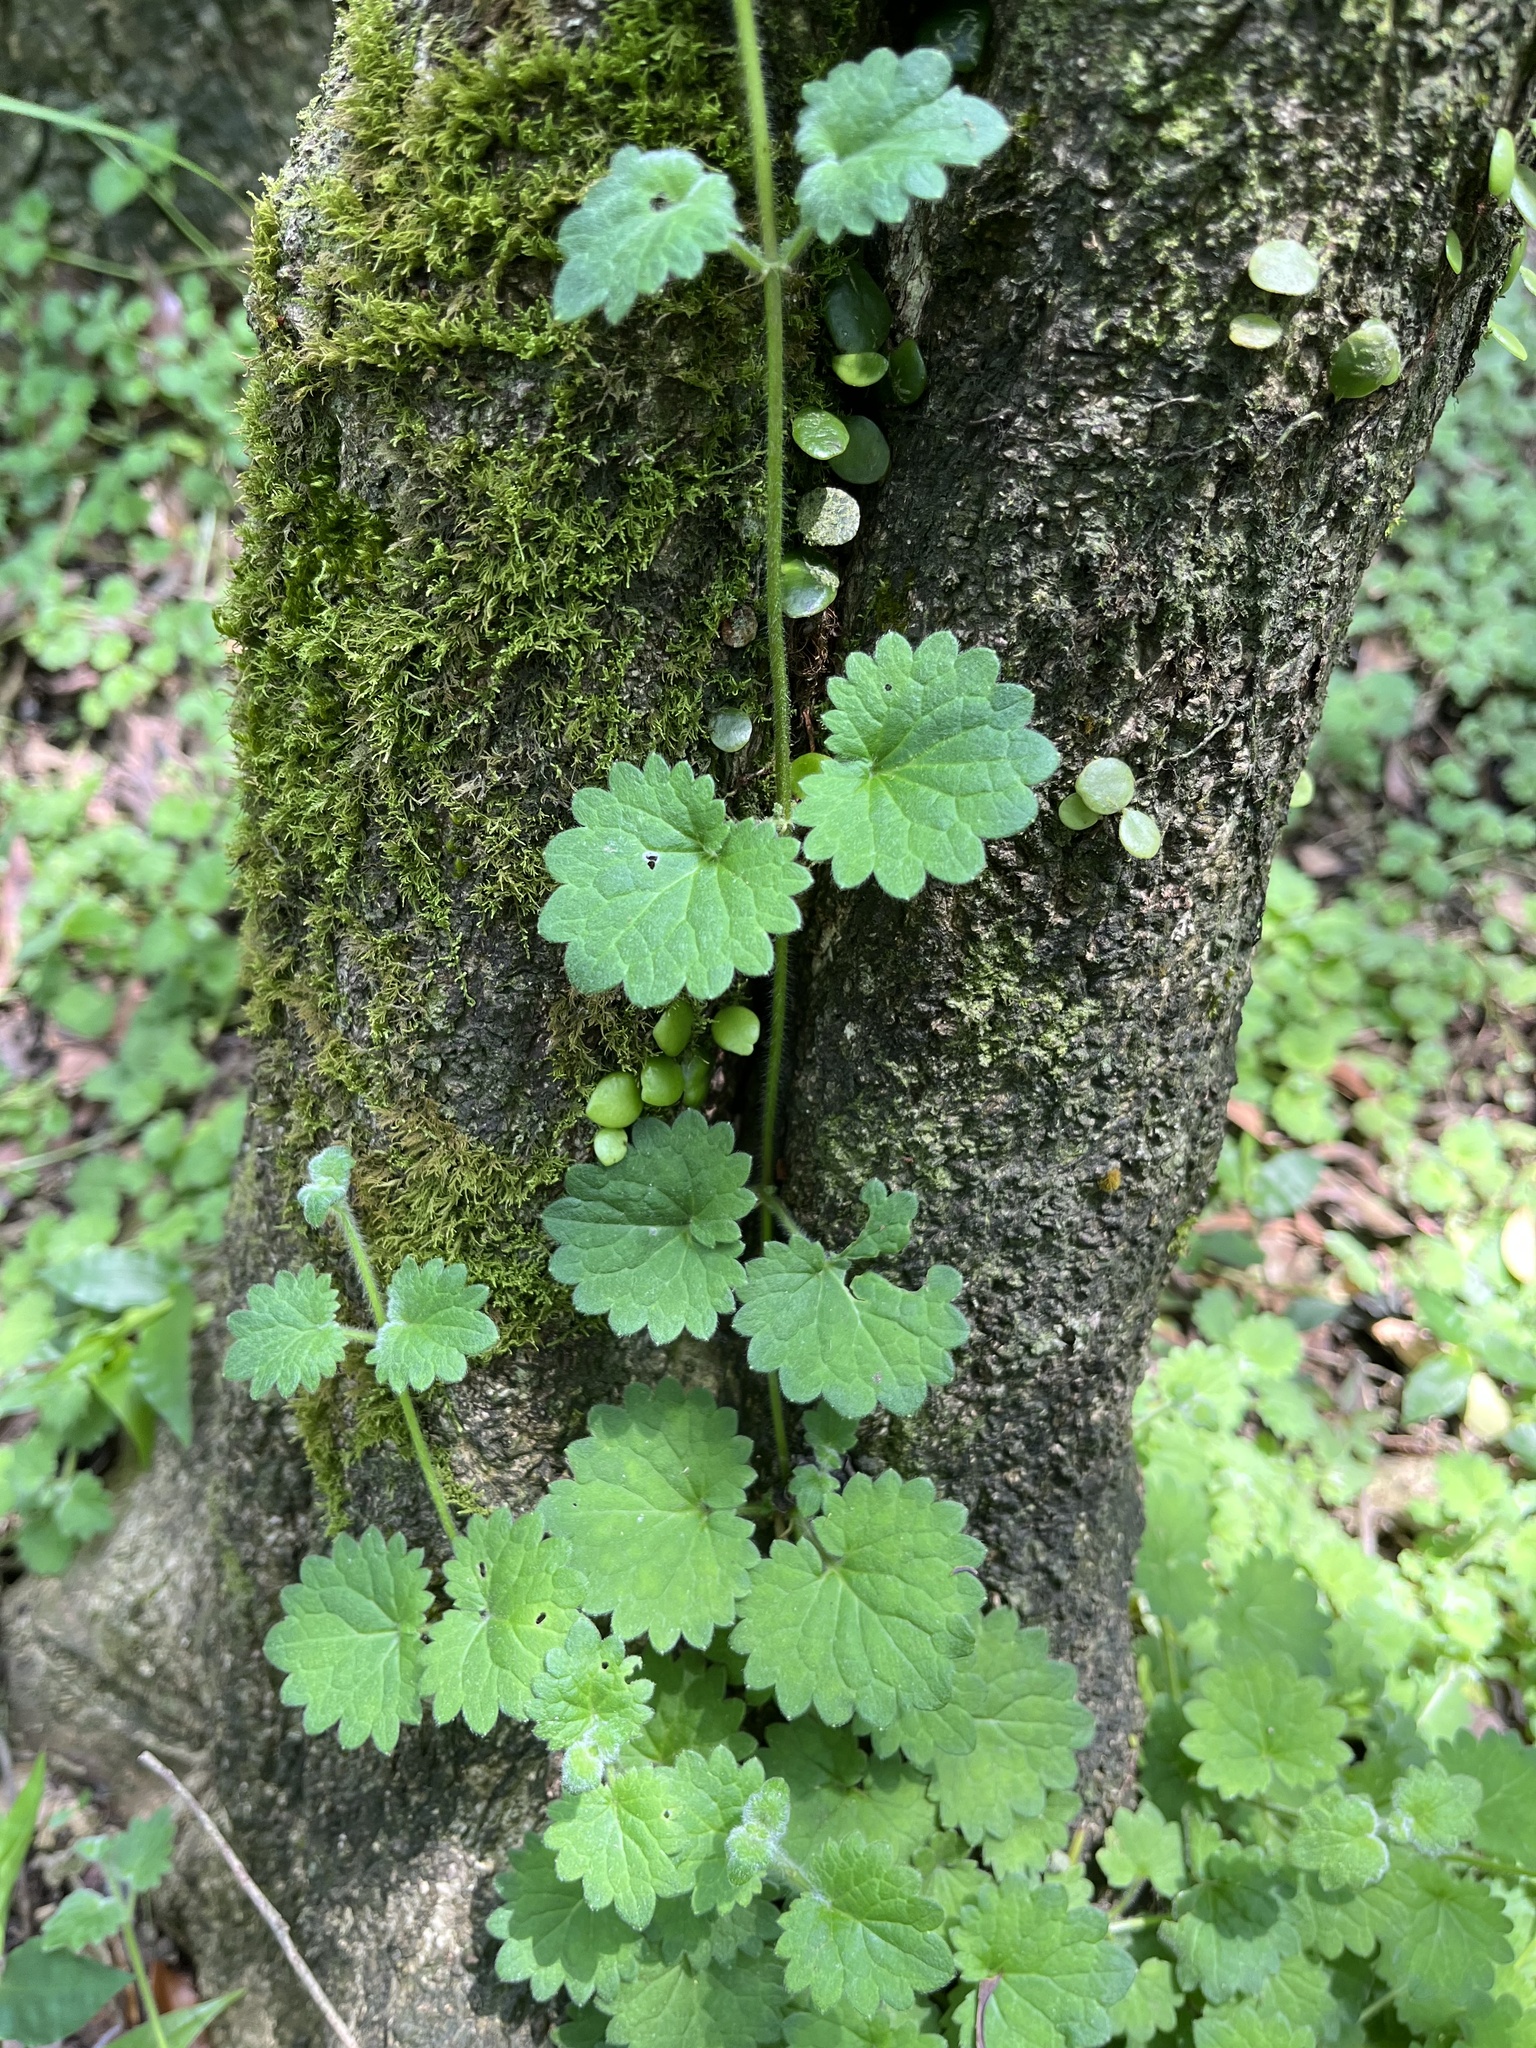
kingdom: Plantae
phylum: Tracheophyta
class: Magnoliopsida
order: Lamiales
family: Lamiaceae
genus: Suzukia
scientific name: Suzukia shikikunensis
